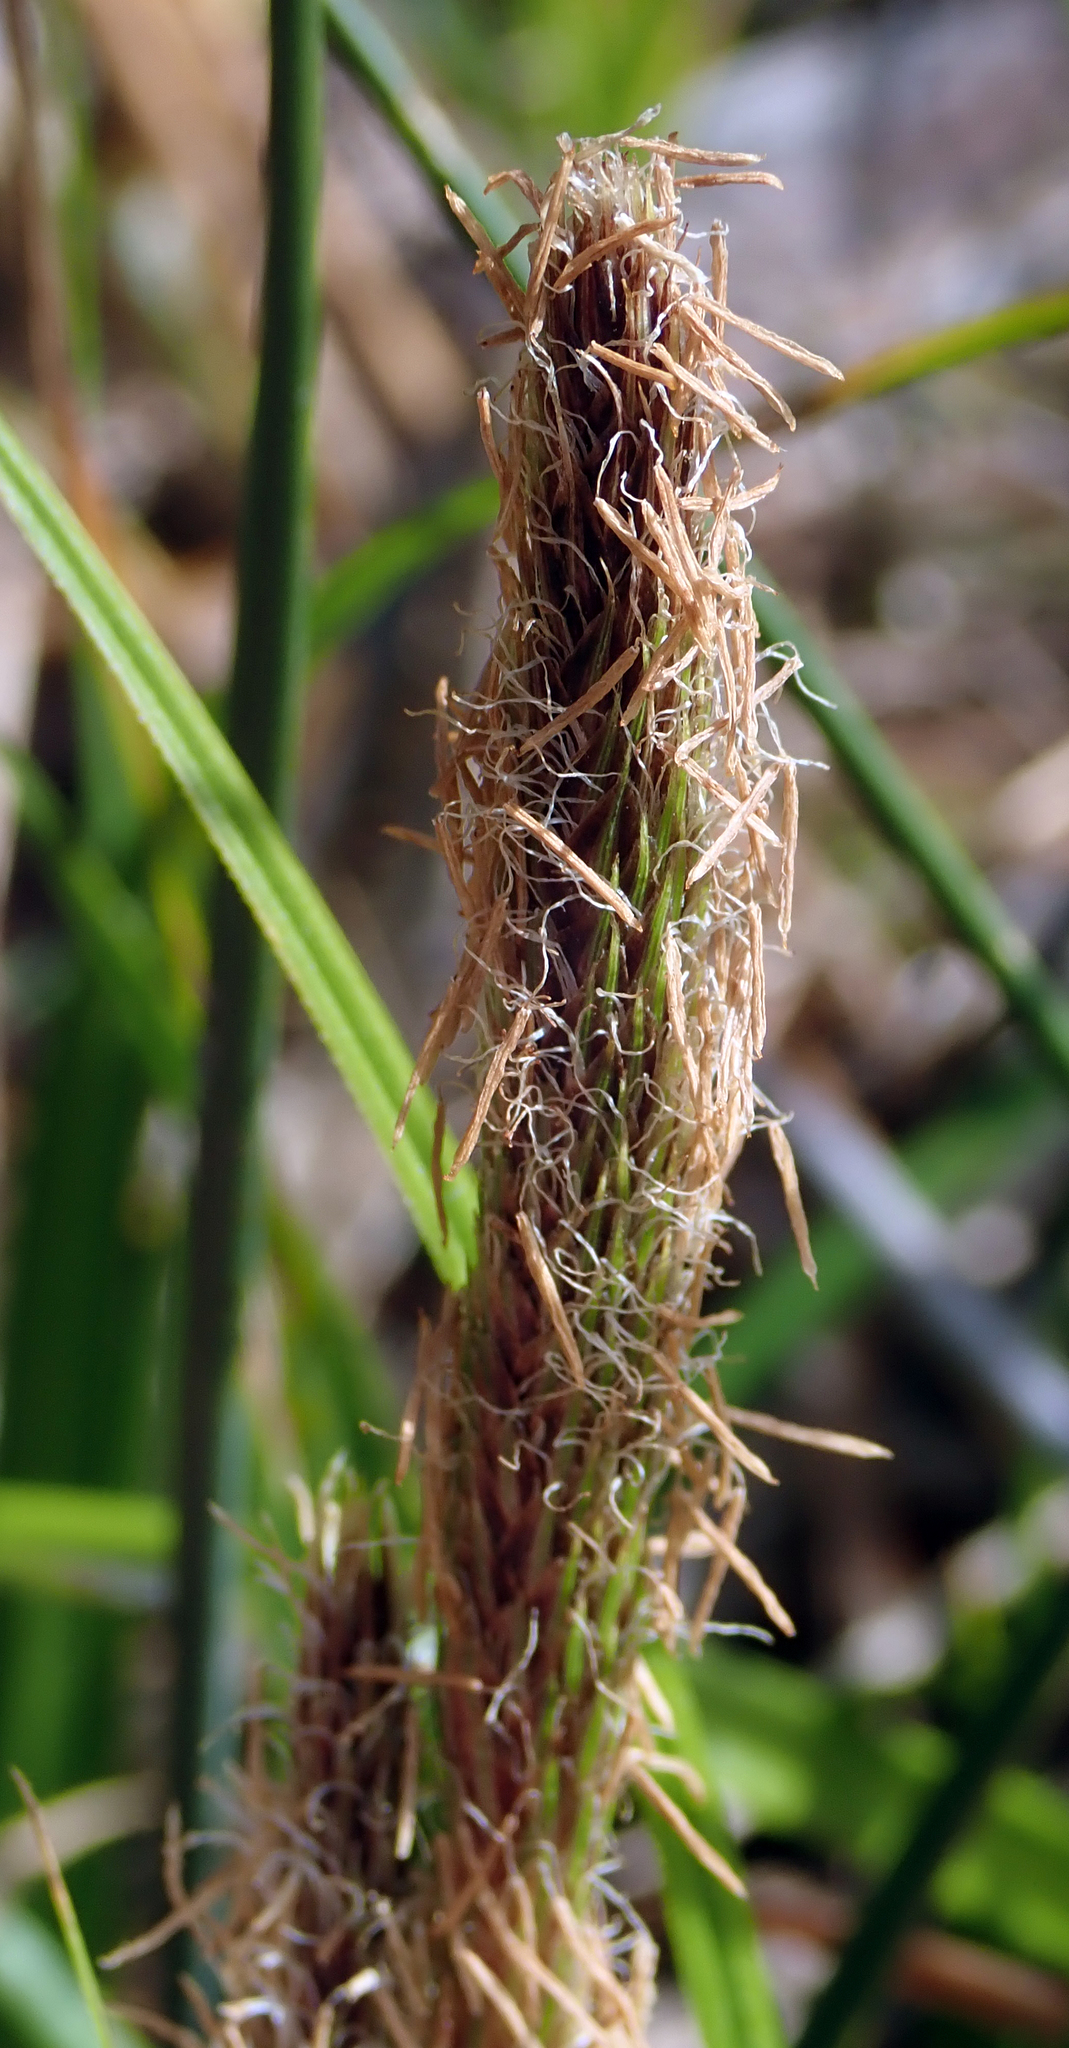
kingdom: Plantae
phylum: Tracheophyta
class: Liliopsida
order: Poales
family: Cyperaceae
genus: Carex
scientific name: Carex chathamica
